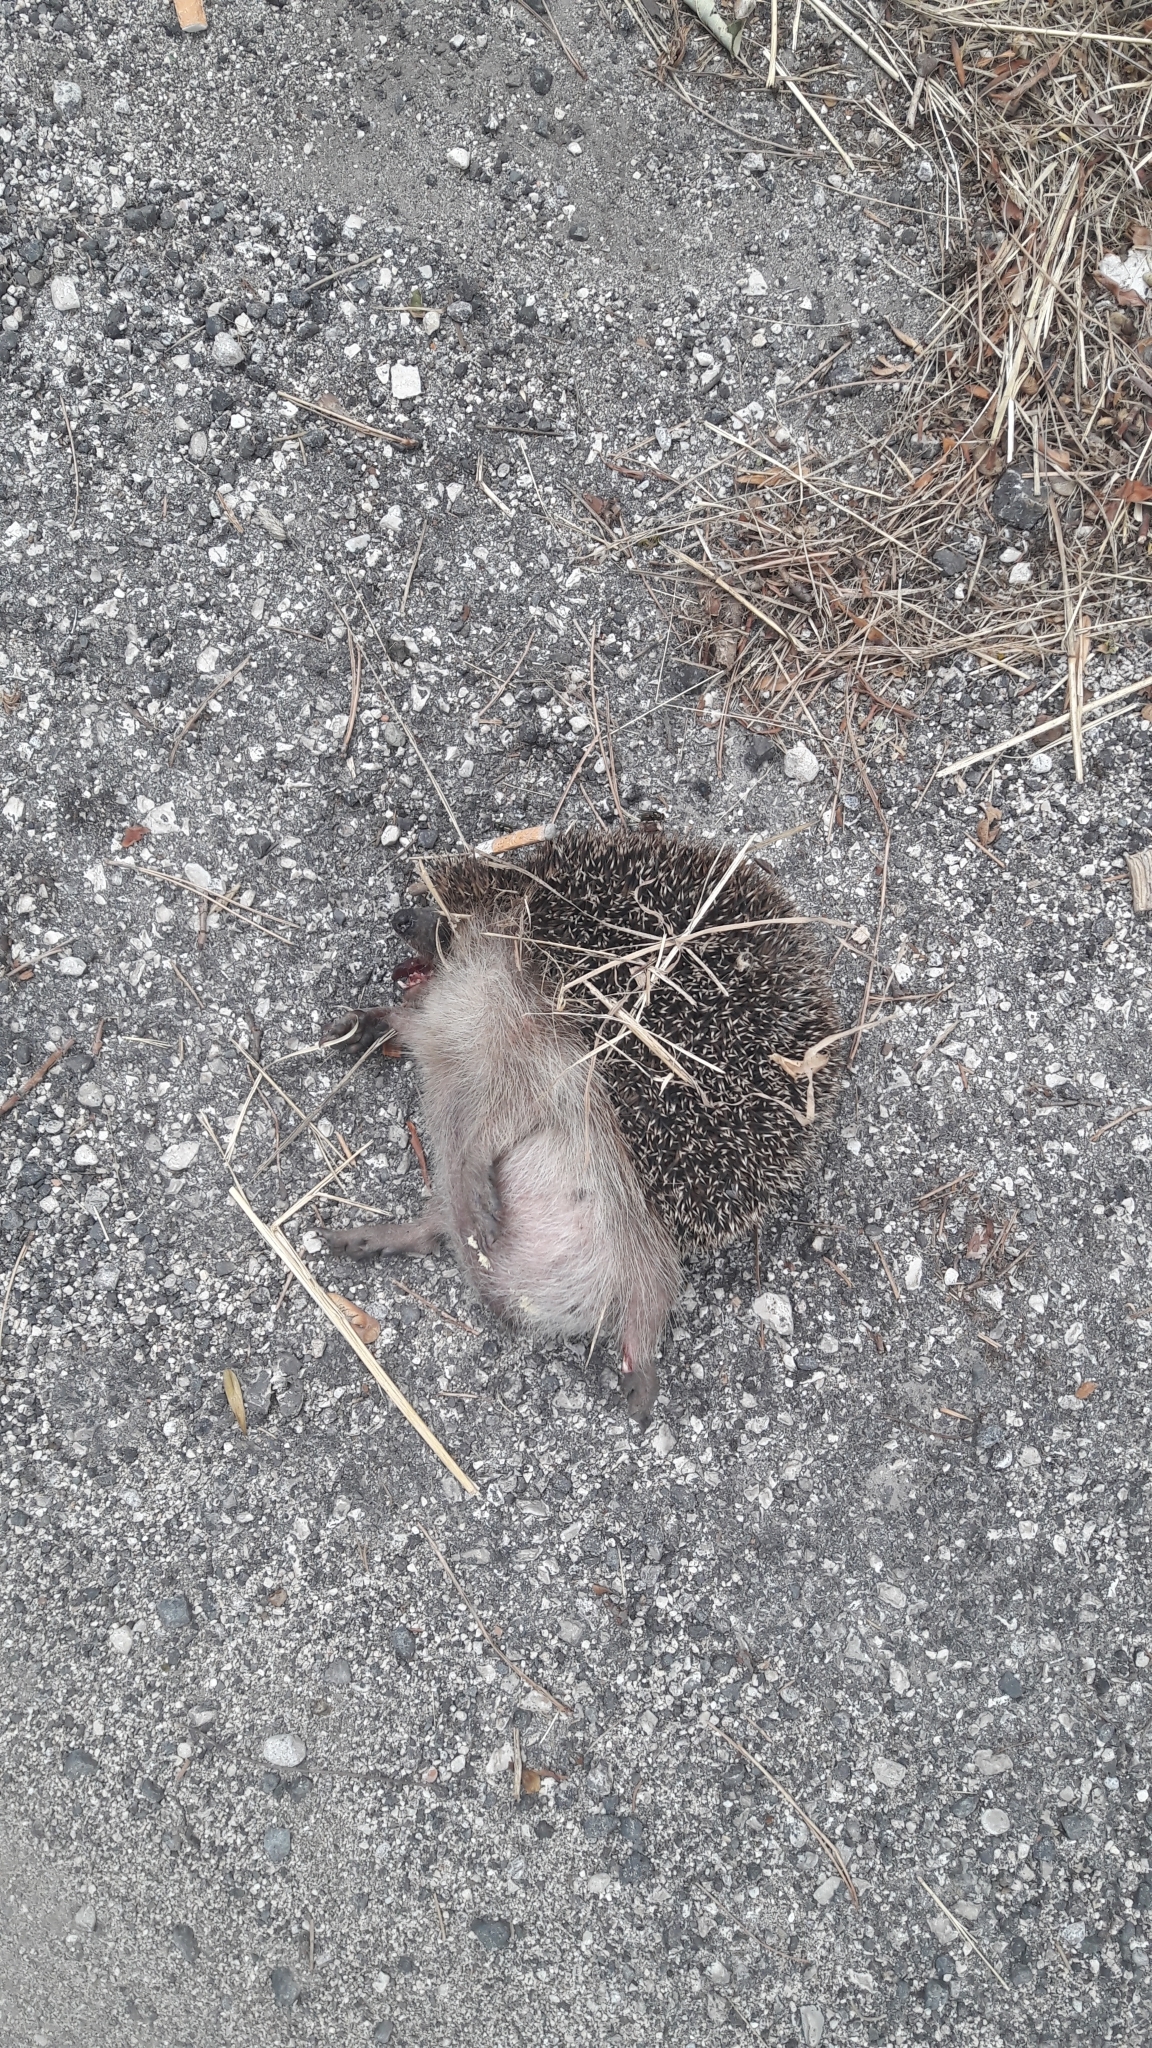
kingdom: Animalia
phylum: Chordata
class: Mammalia
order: Erinaceomorpha
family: Erinaceidae
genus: Erinaceus
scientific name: Erinaceus europaeus
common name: West european hedgehog
